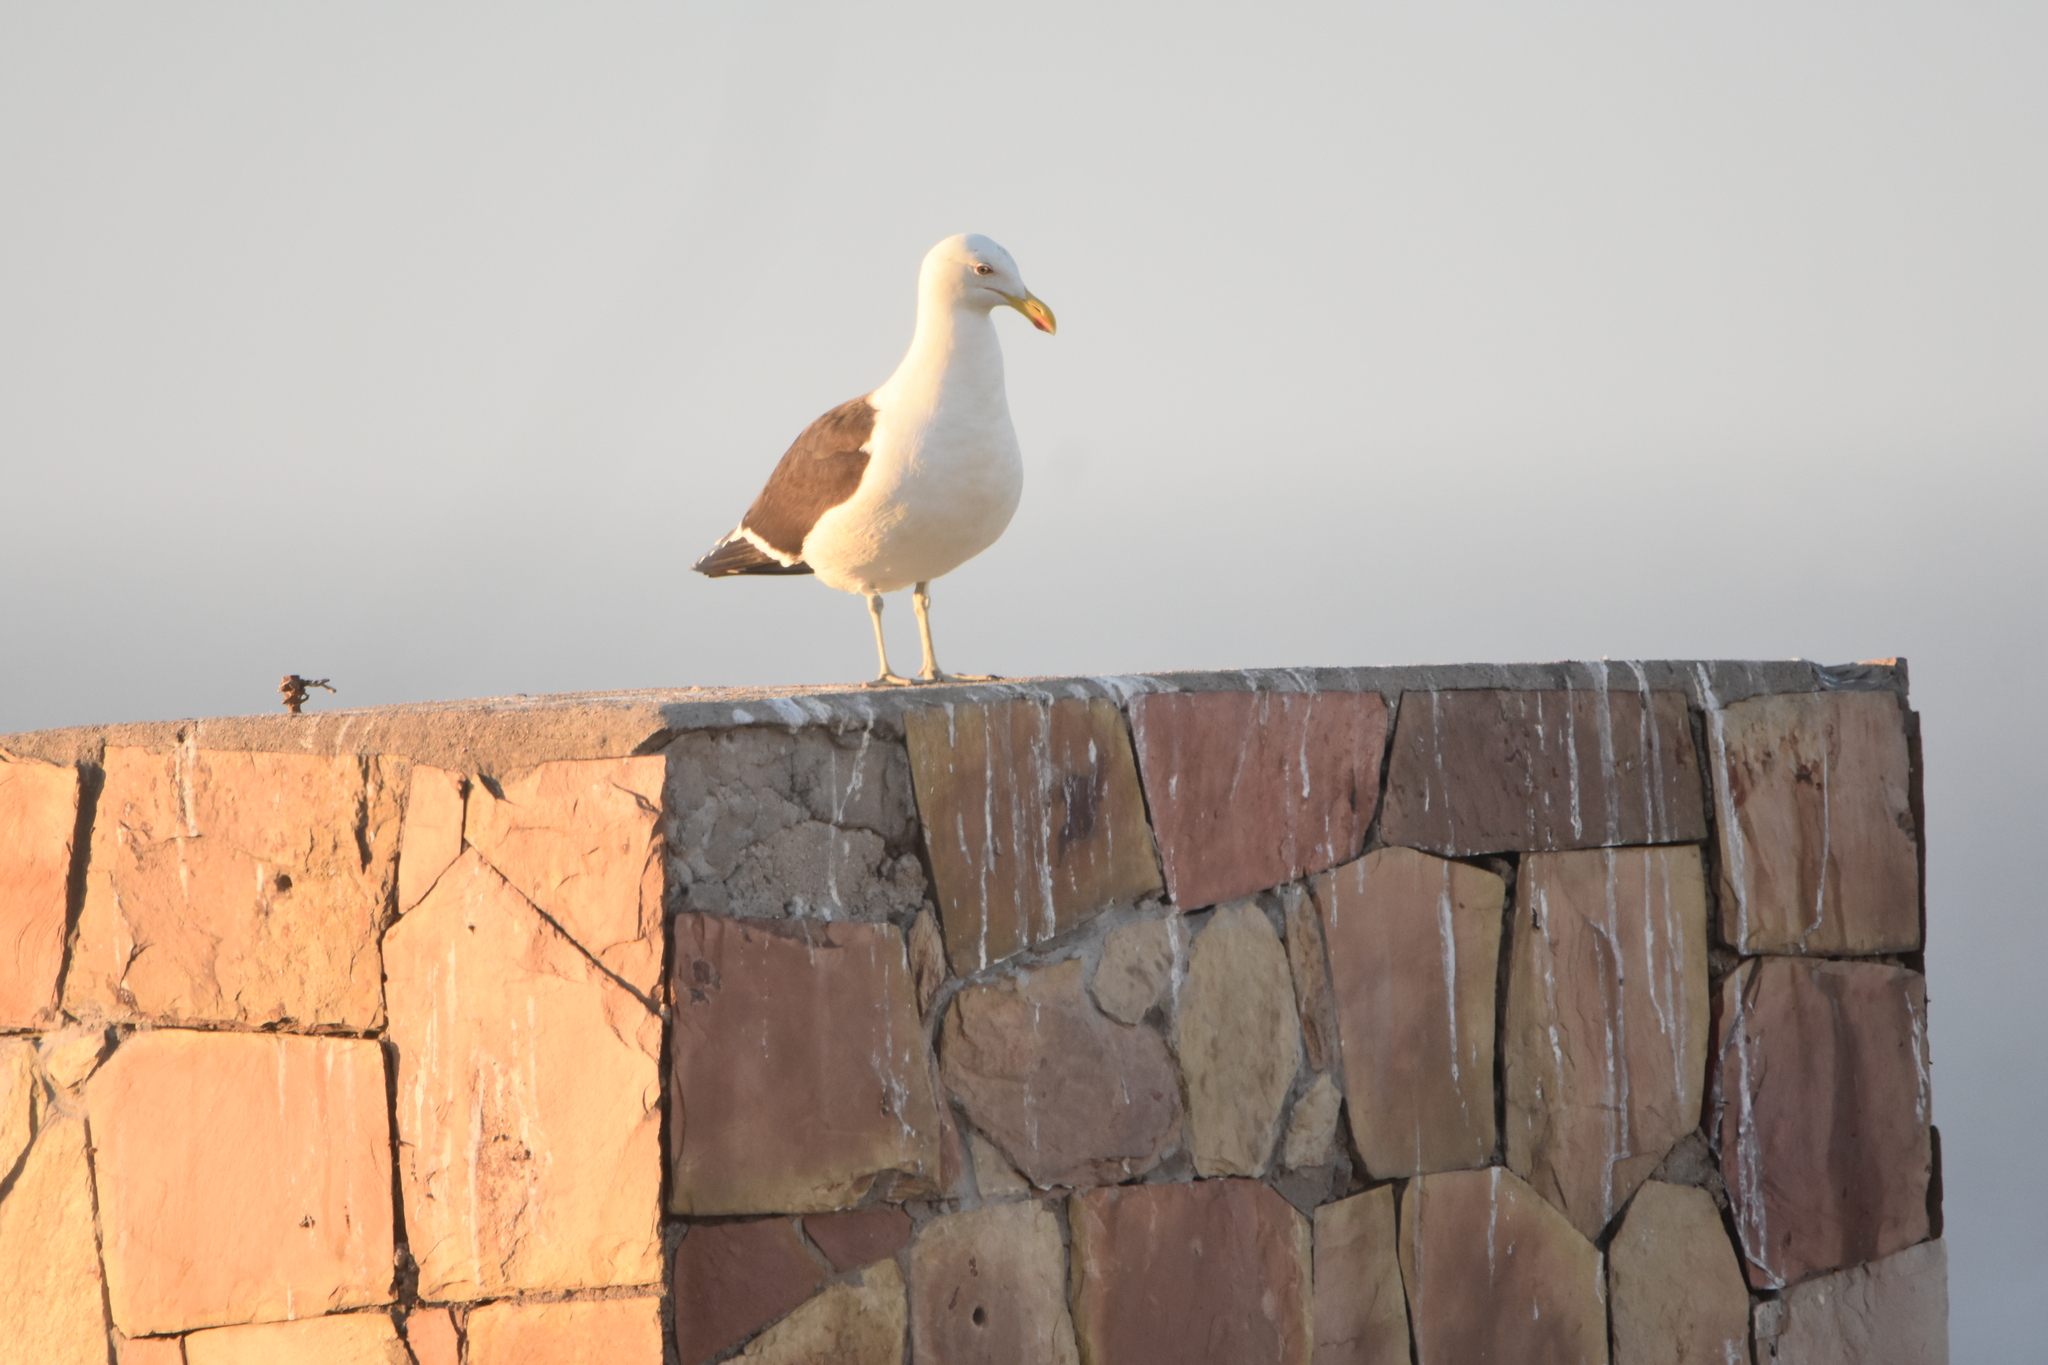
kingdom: Animalia
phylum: Chordata
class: Aves
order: Charadriiformes
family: Laridae
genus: Larus
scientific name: Larus dominicanus
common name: Kelp gull
